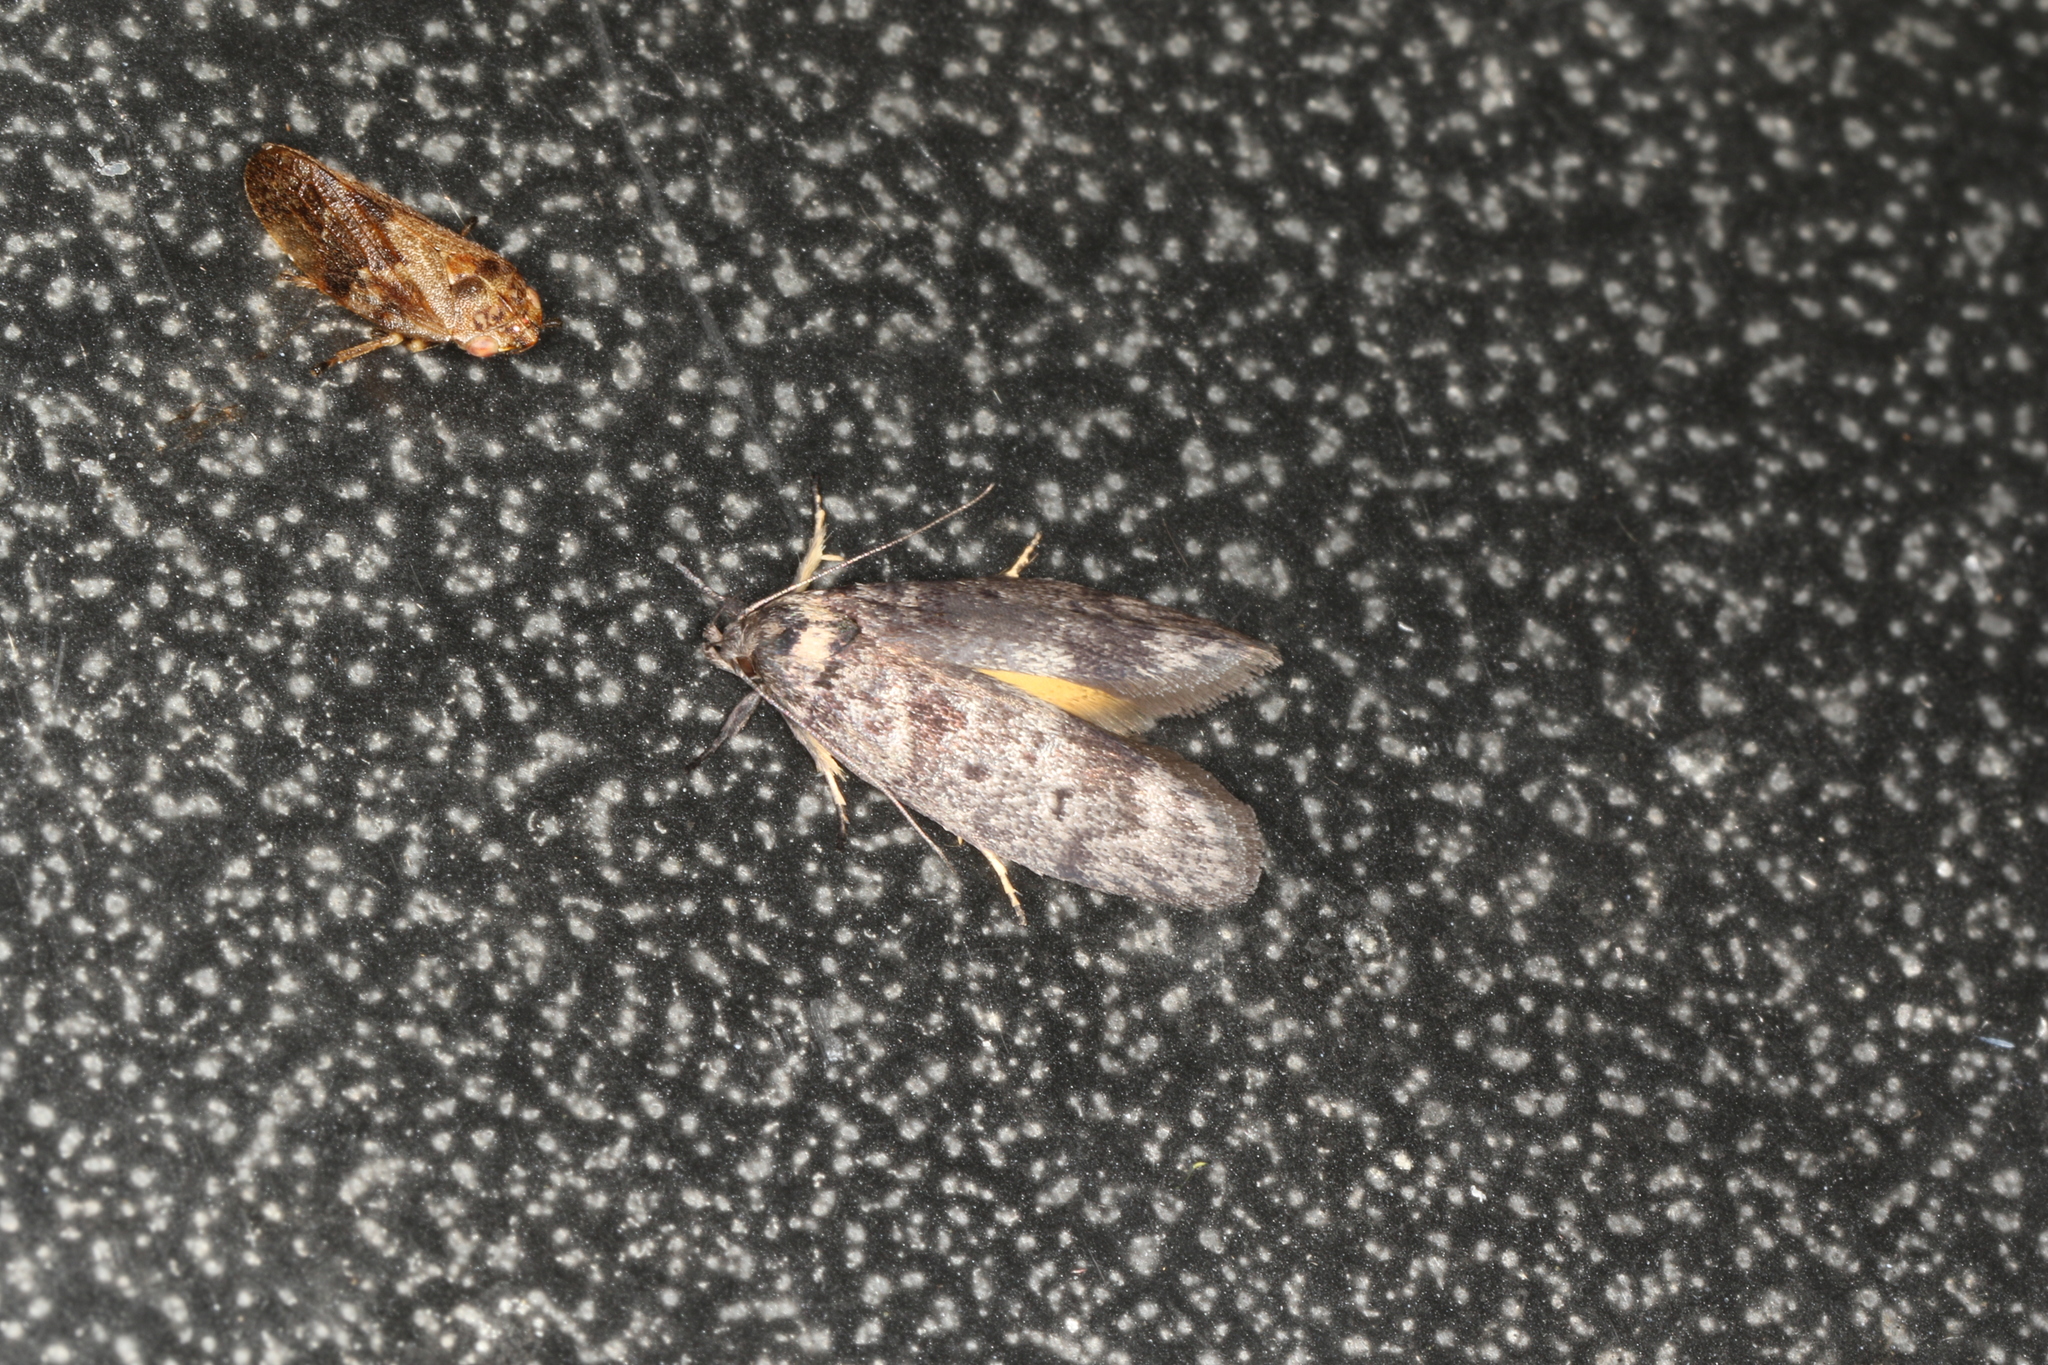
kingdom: Animalia
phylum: Arthropoda
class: Insecta
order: Lepidoptera
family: Oecophoridae
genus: Oenochroa
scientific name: Oenochroa lactella
